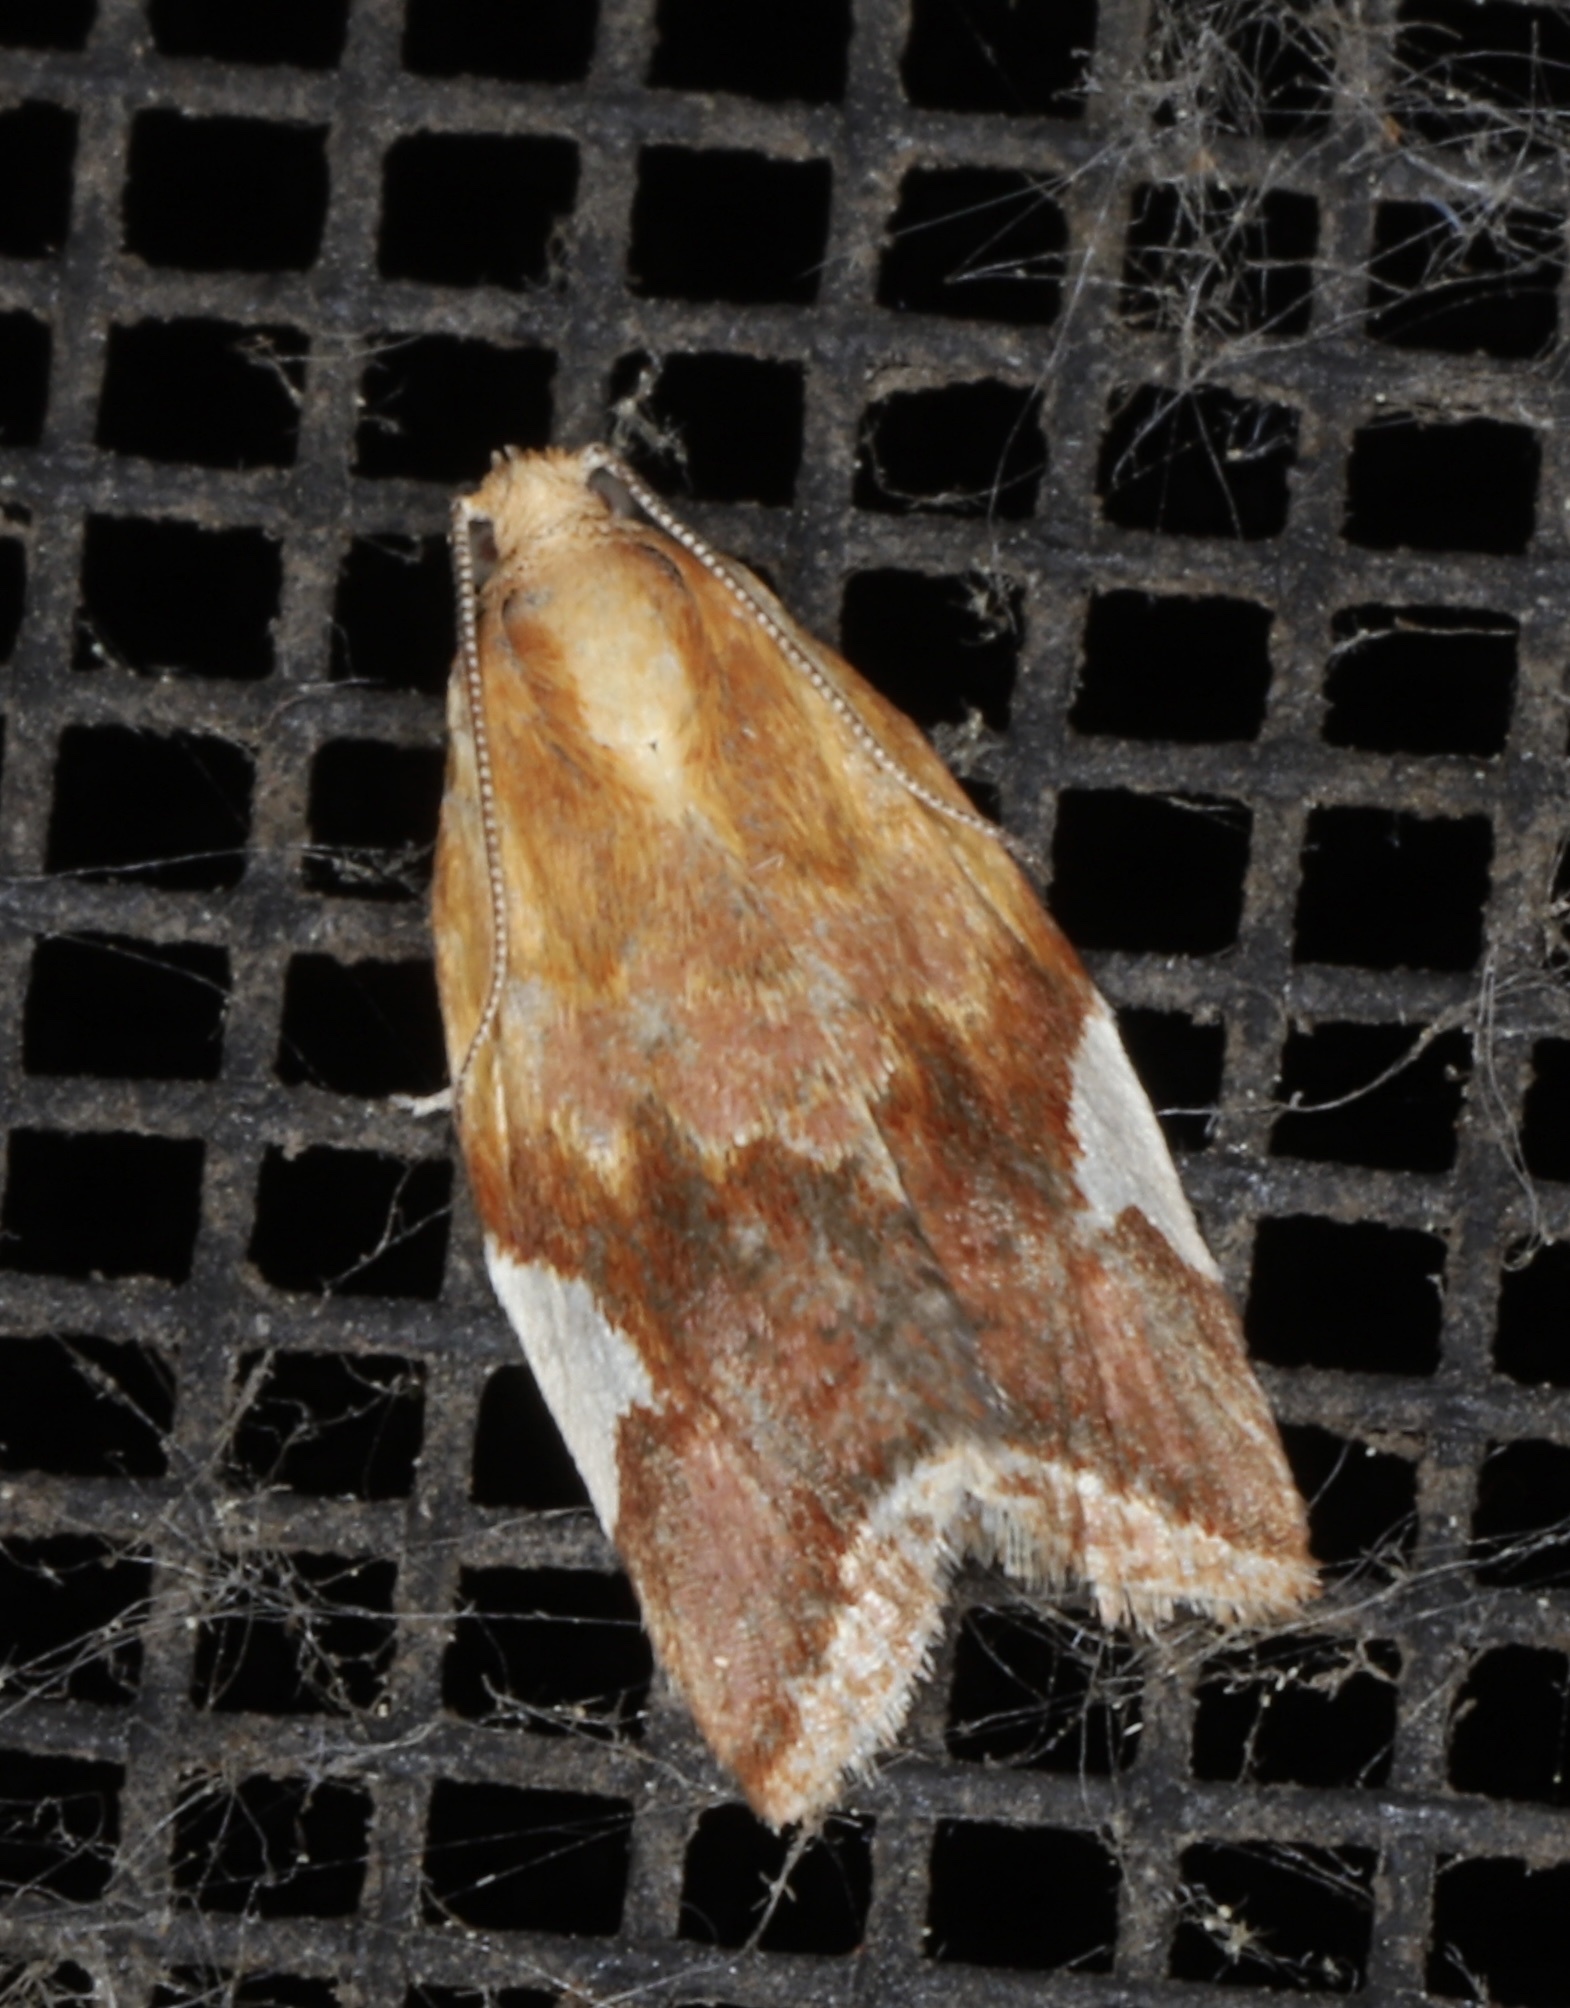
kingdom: Animalia
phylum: Arthropoda
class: Insecta
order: Lepidoptera
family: Tortricidae
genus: Clepsis
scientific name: Clepsis persicana
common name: White triangle tortrix
